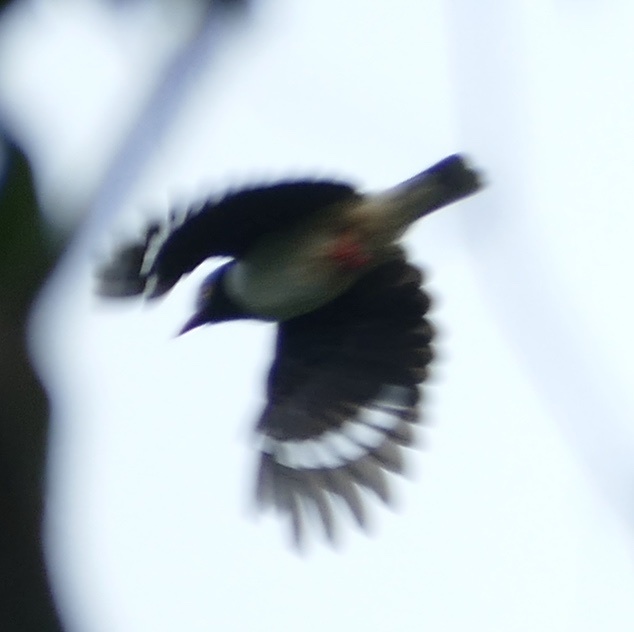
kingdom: Animalia
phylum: Chordata
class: Aves
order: Passeriformes
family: Prionopidae
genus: Prionops
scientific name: Prionops caniceps
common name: Red-billed helmetshrike
